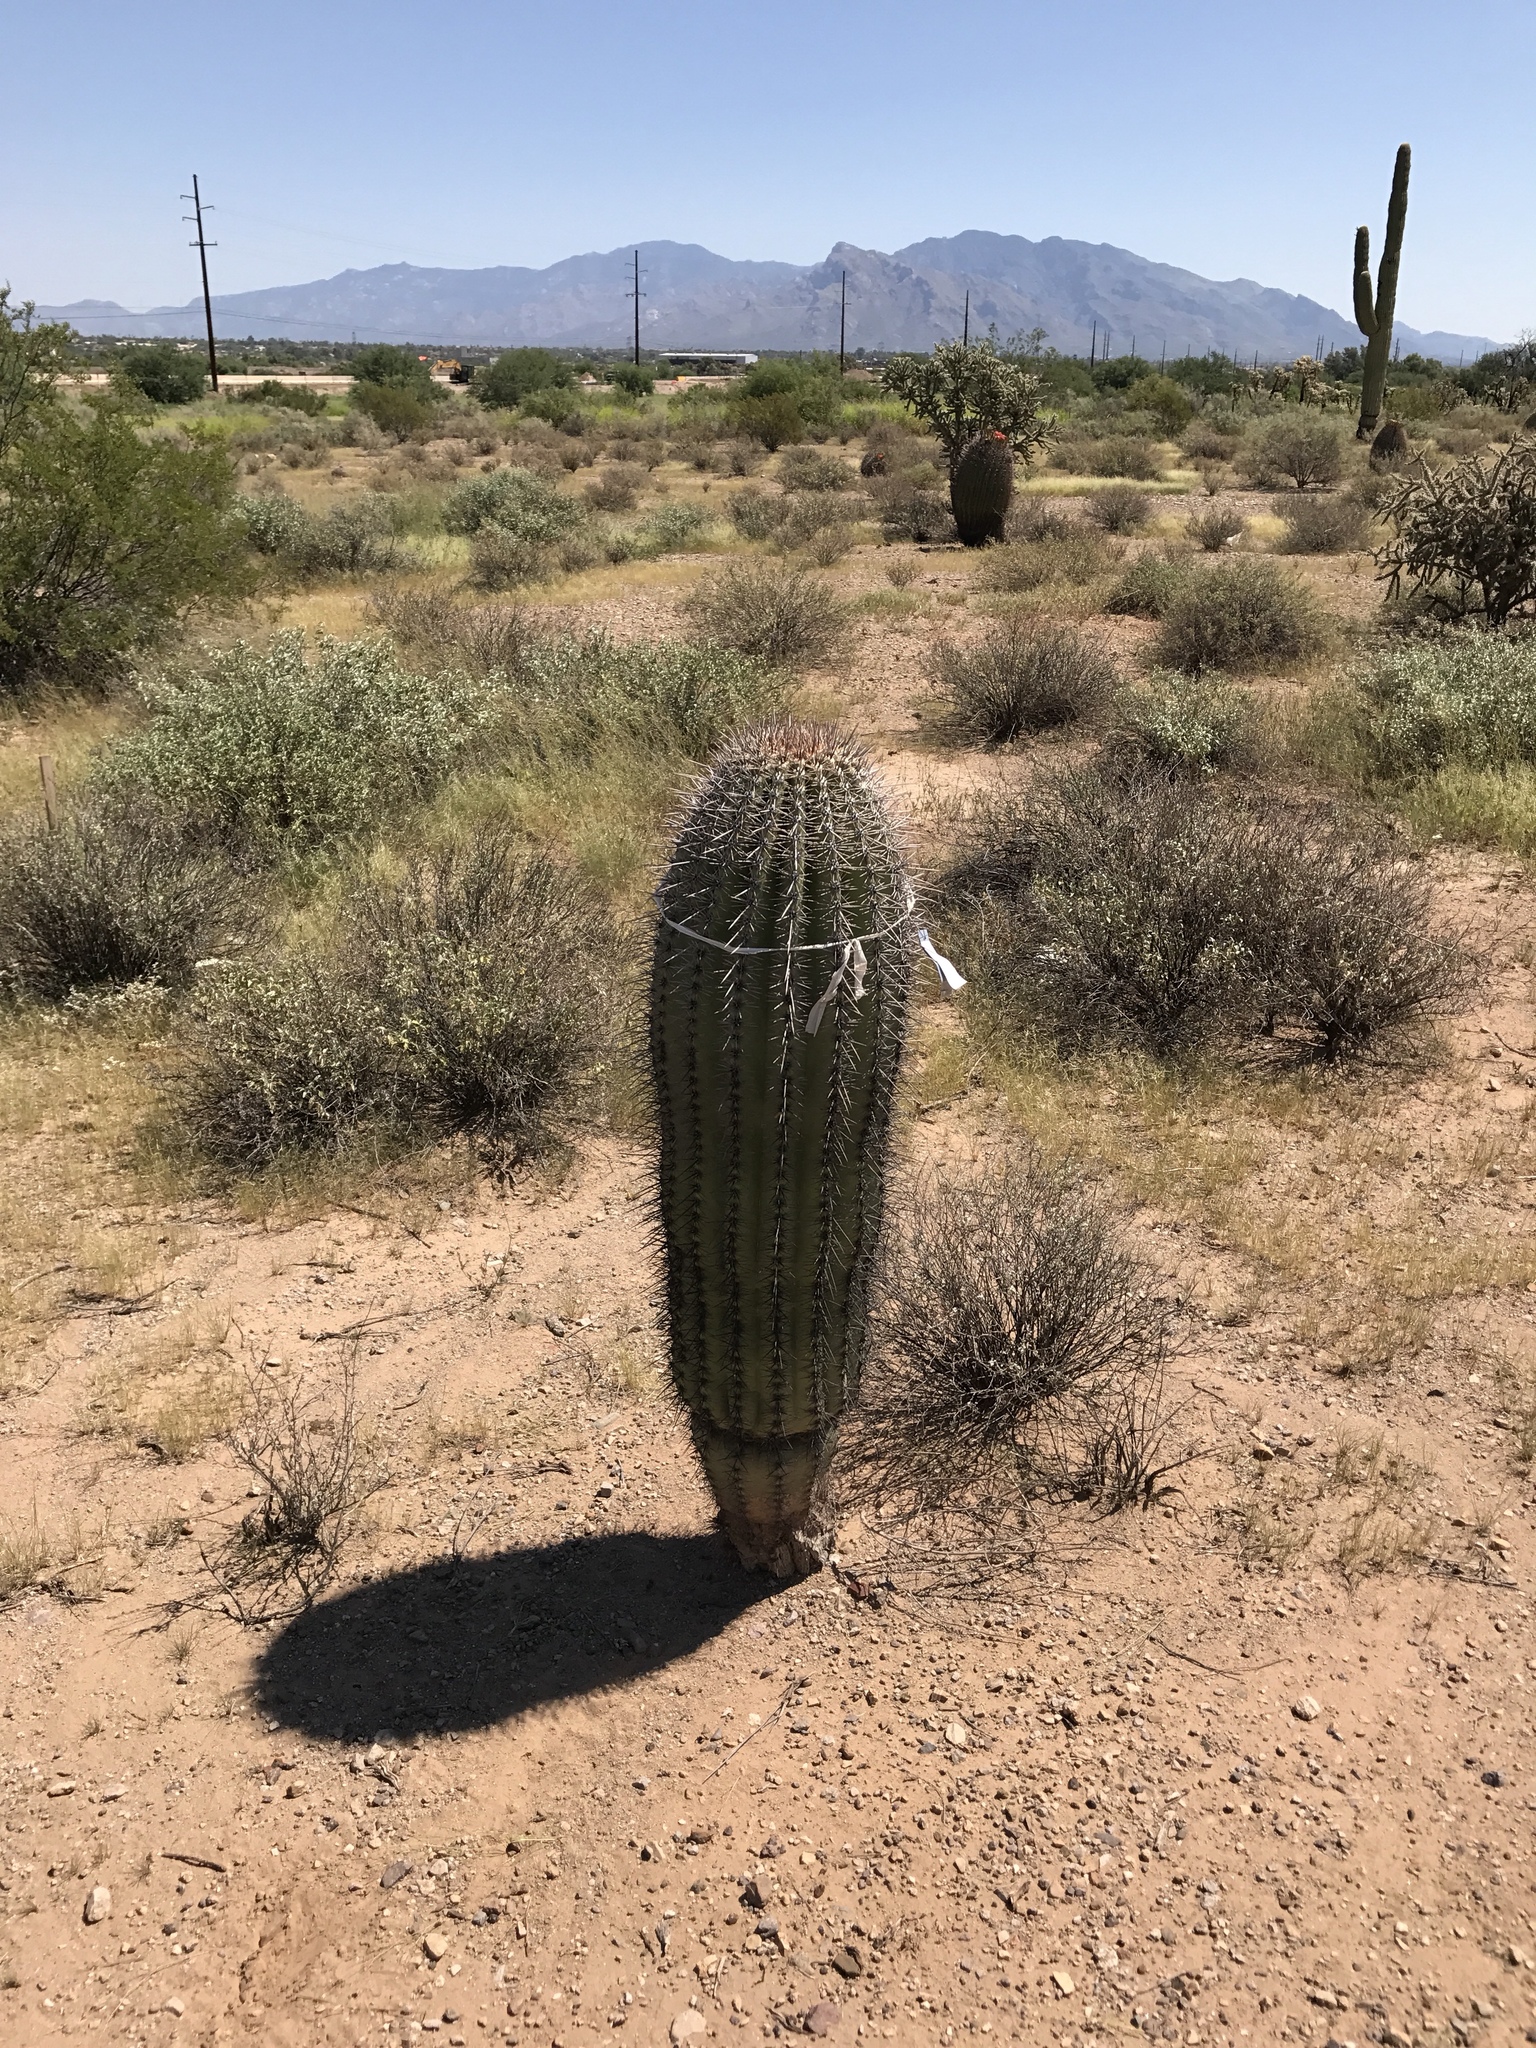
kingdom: Plantae
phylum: Tracheophyta
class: Magnoliopsida
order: Caryophyllales
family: Cactaceae
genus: Carnegiea
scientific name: Carnegiea gigantea
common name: Saguaro
